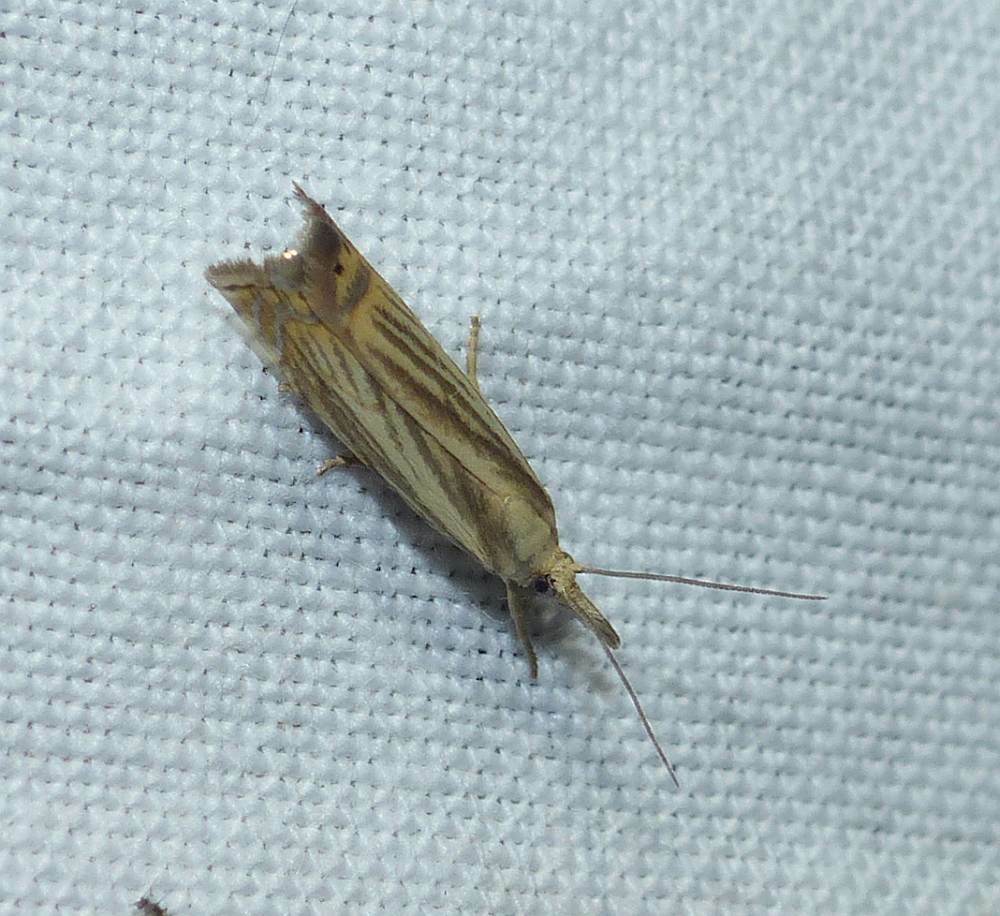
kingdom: Animalia
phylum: Arthropoda
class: Insecta
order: Lepidoptera
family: Crambidae
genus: Chrysoteuchia
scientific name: Chrysoteuchia topiarius
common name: Topiary grass-veneer
